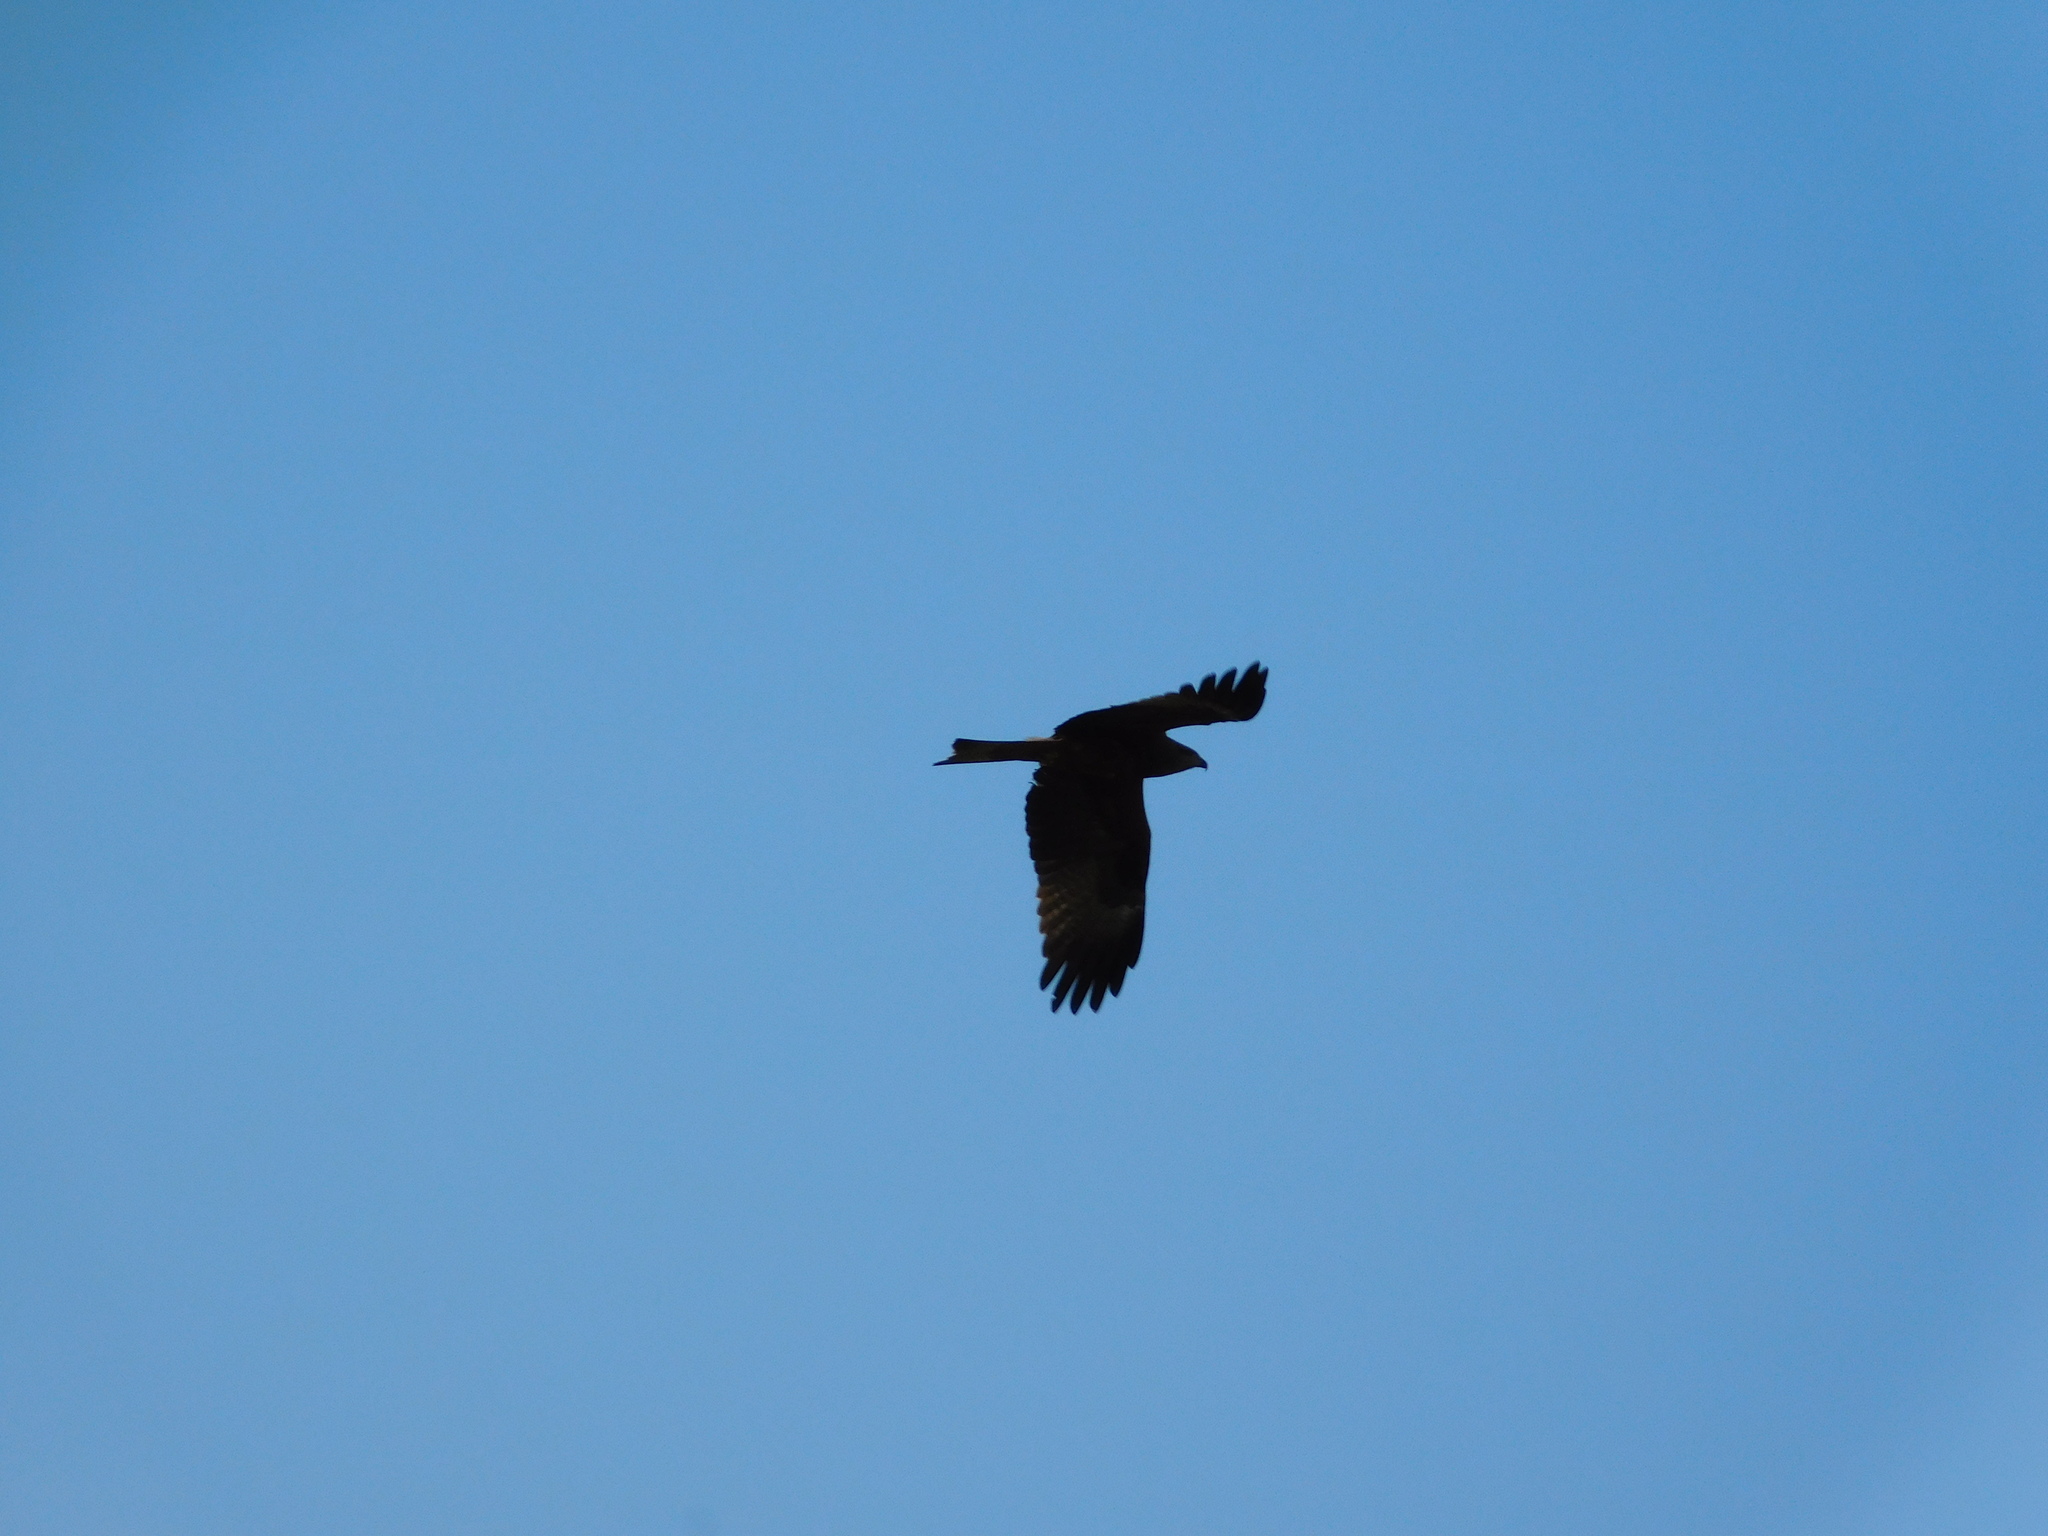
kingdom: Animalia
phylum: Chordata
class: Aves
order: Accipitriformes
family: Accipitridae
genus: Milvus
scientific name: Milvus migrans
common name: Black kite
